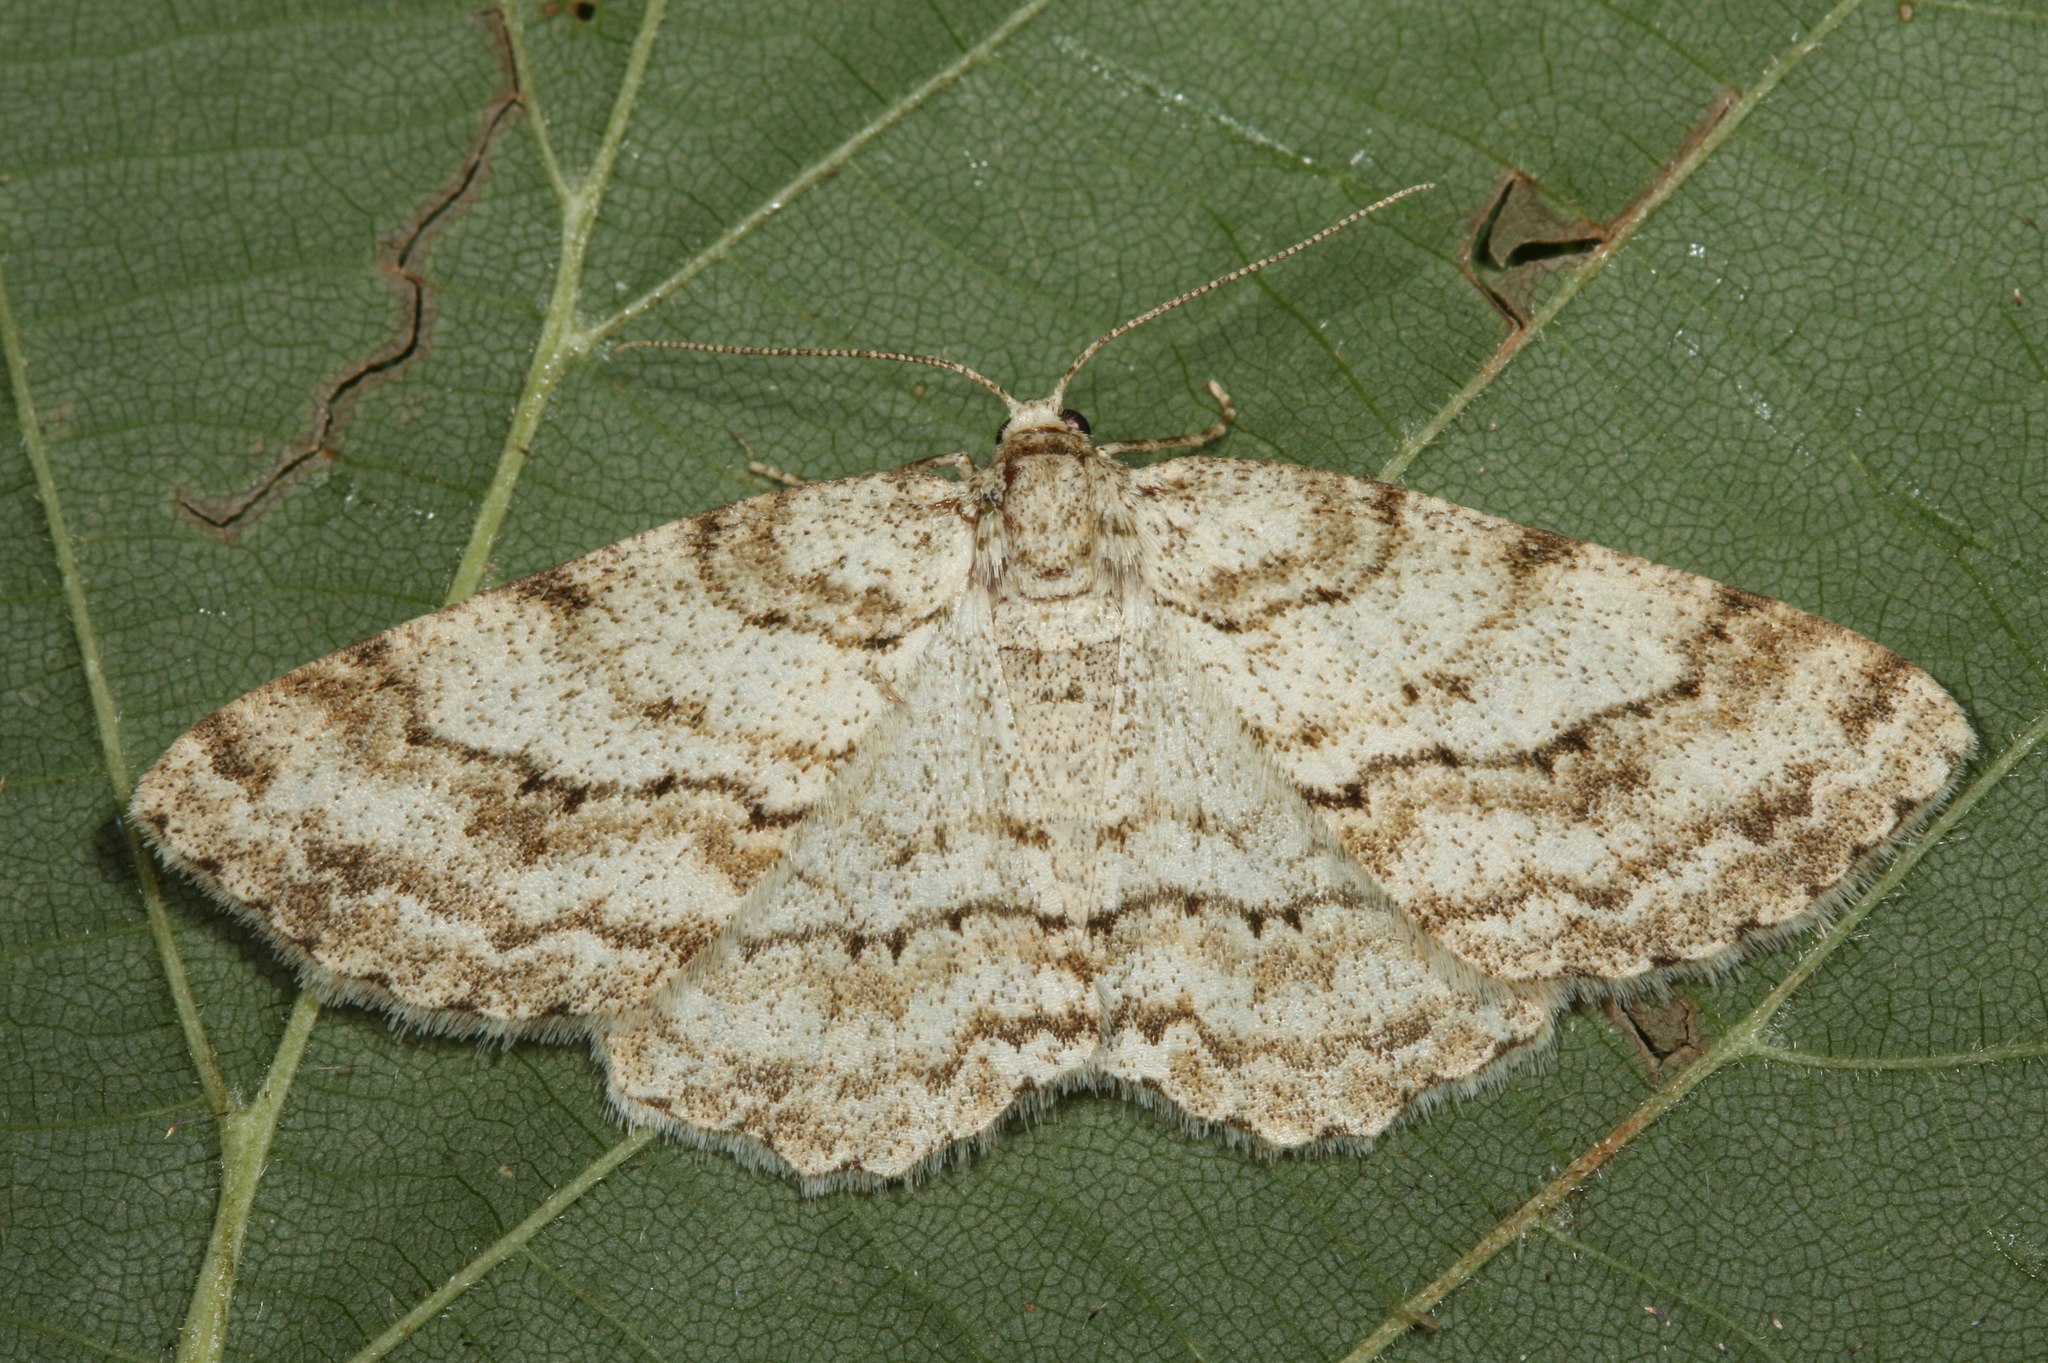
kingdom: Animalia
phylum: Arthropoda
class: Insecta
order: Lepidoptera
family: Geometridae
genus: Ectropis
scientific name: Ectropis crepuscularia
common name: Engrailed
